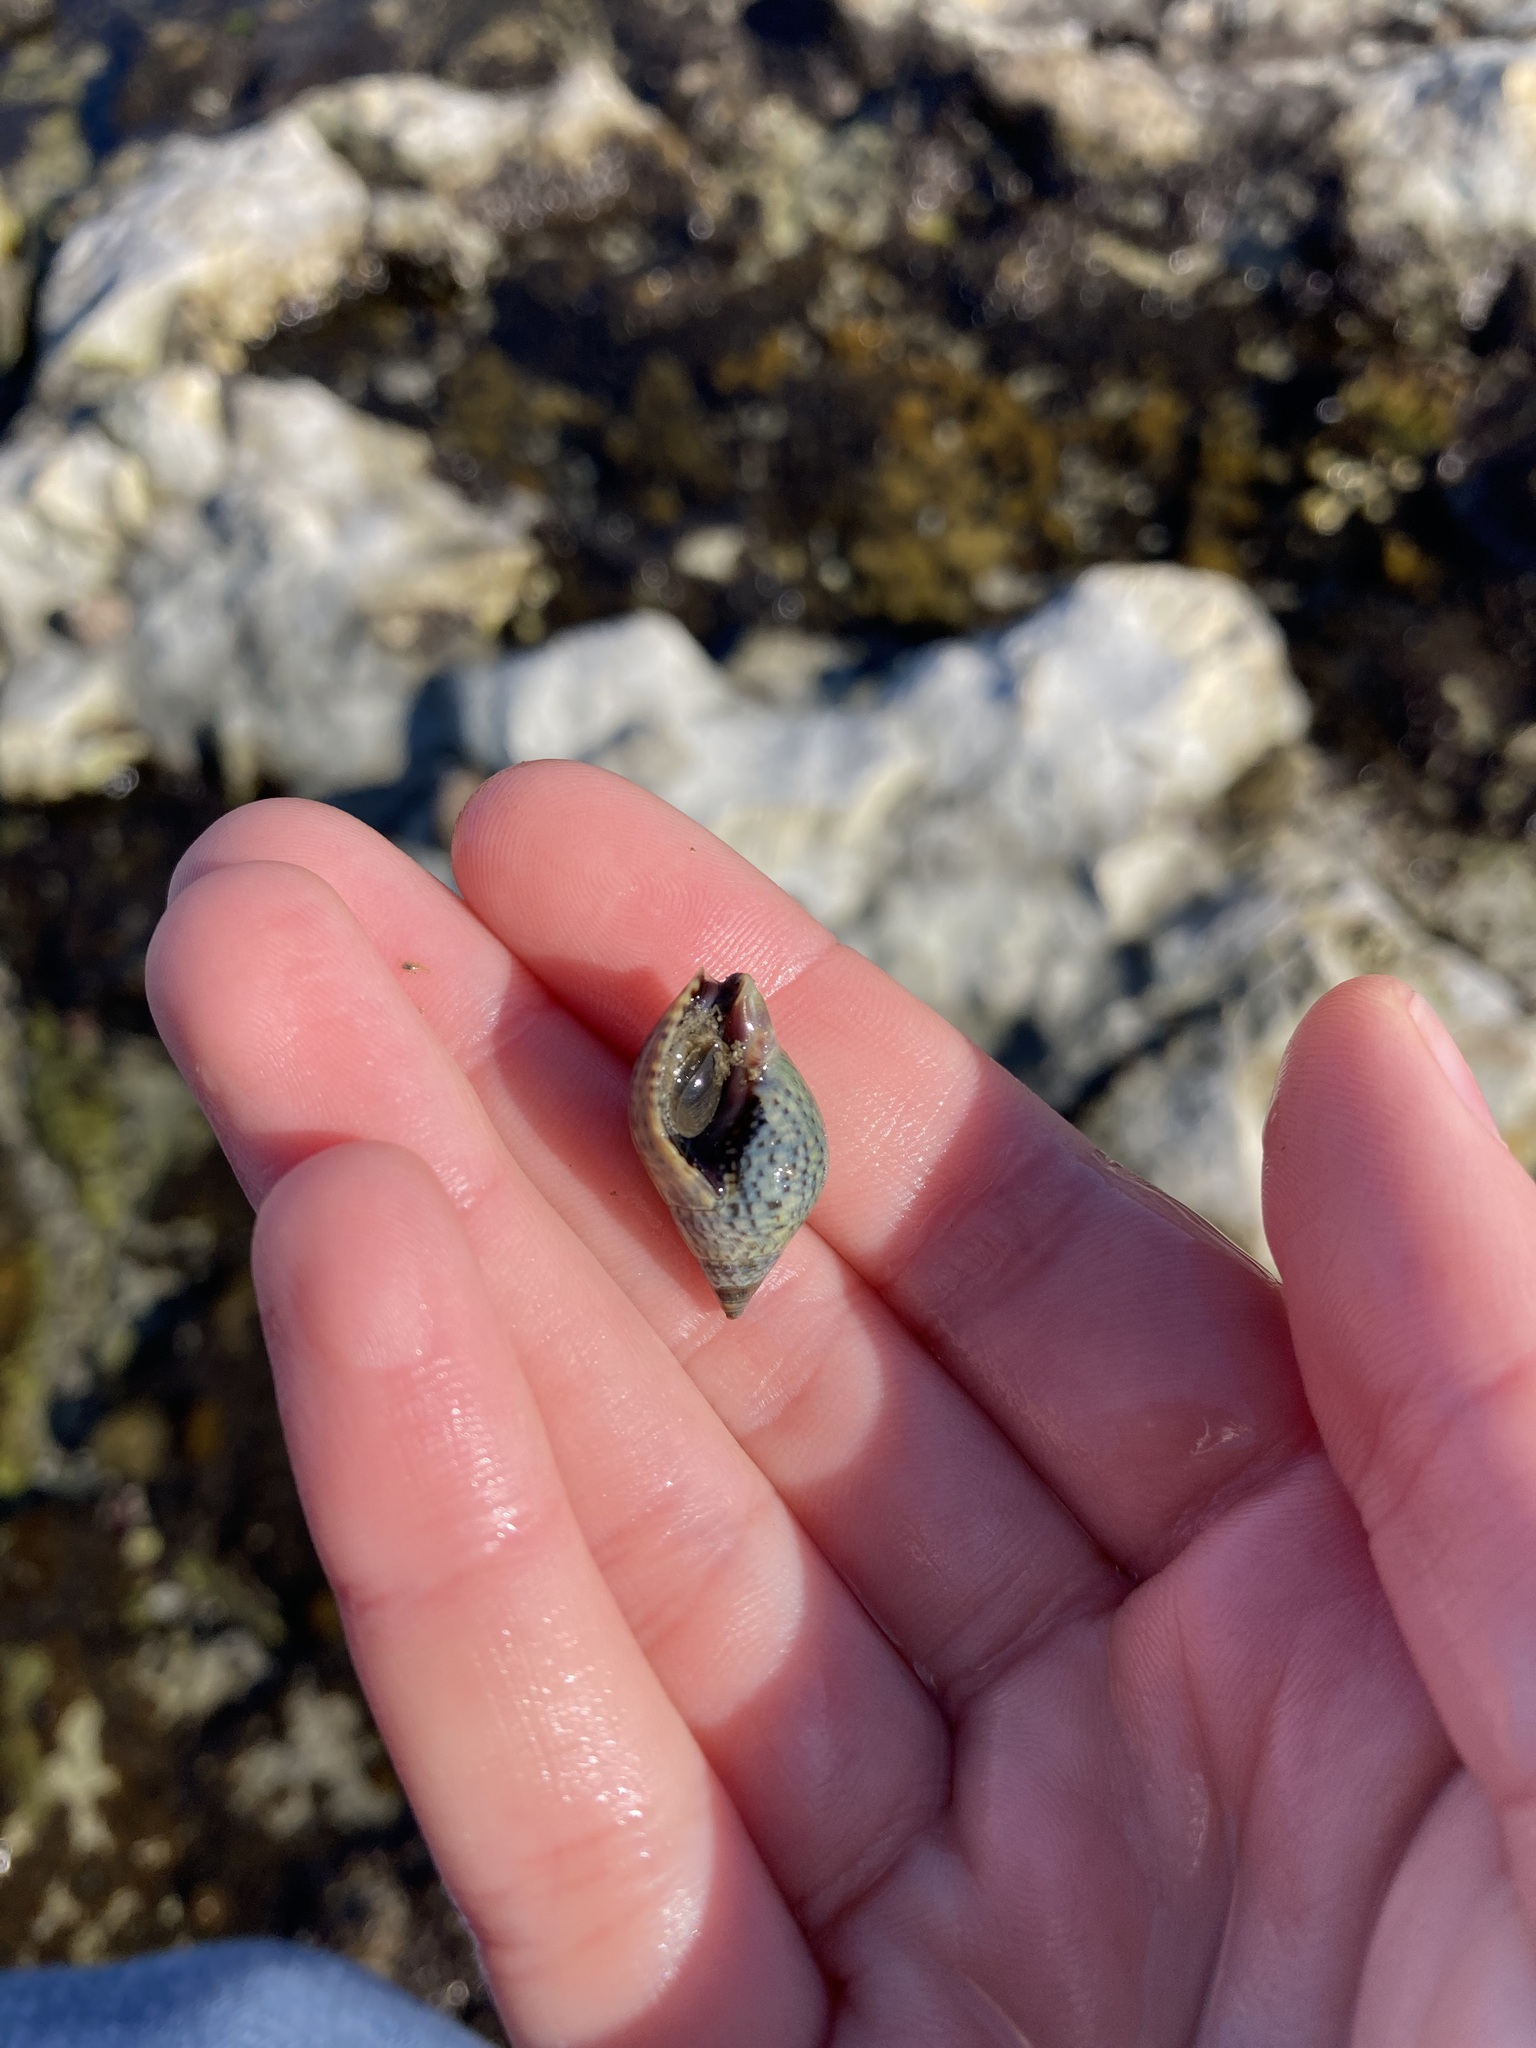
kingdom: Animalia
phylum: Mollusca
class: Gastropoda
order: Neogastropoda
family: Cominellidae
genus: Cominella
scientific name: Cominella maculosa
